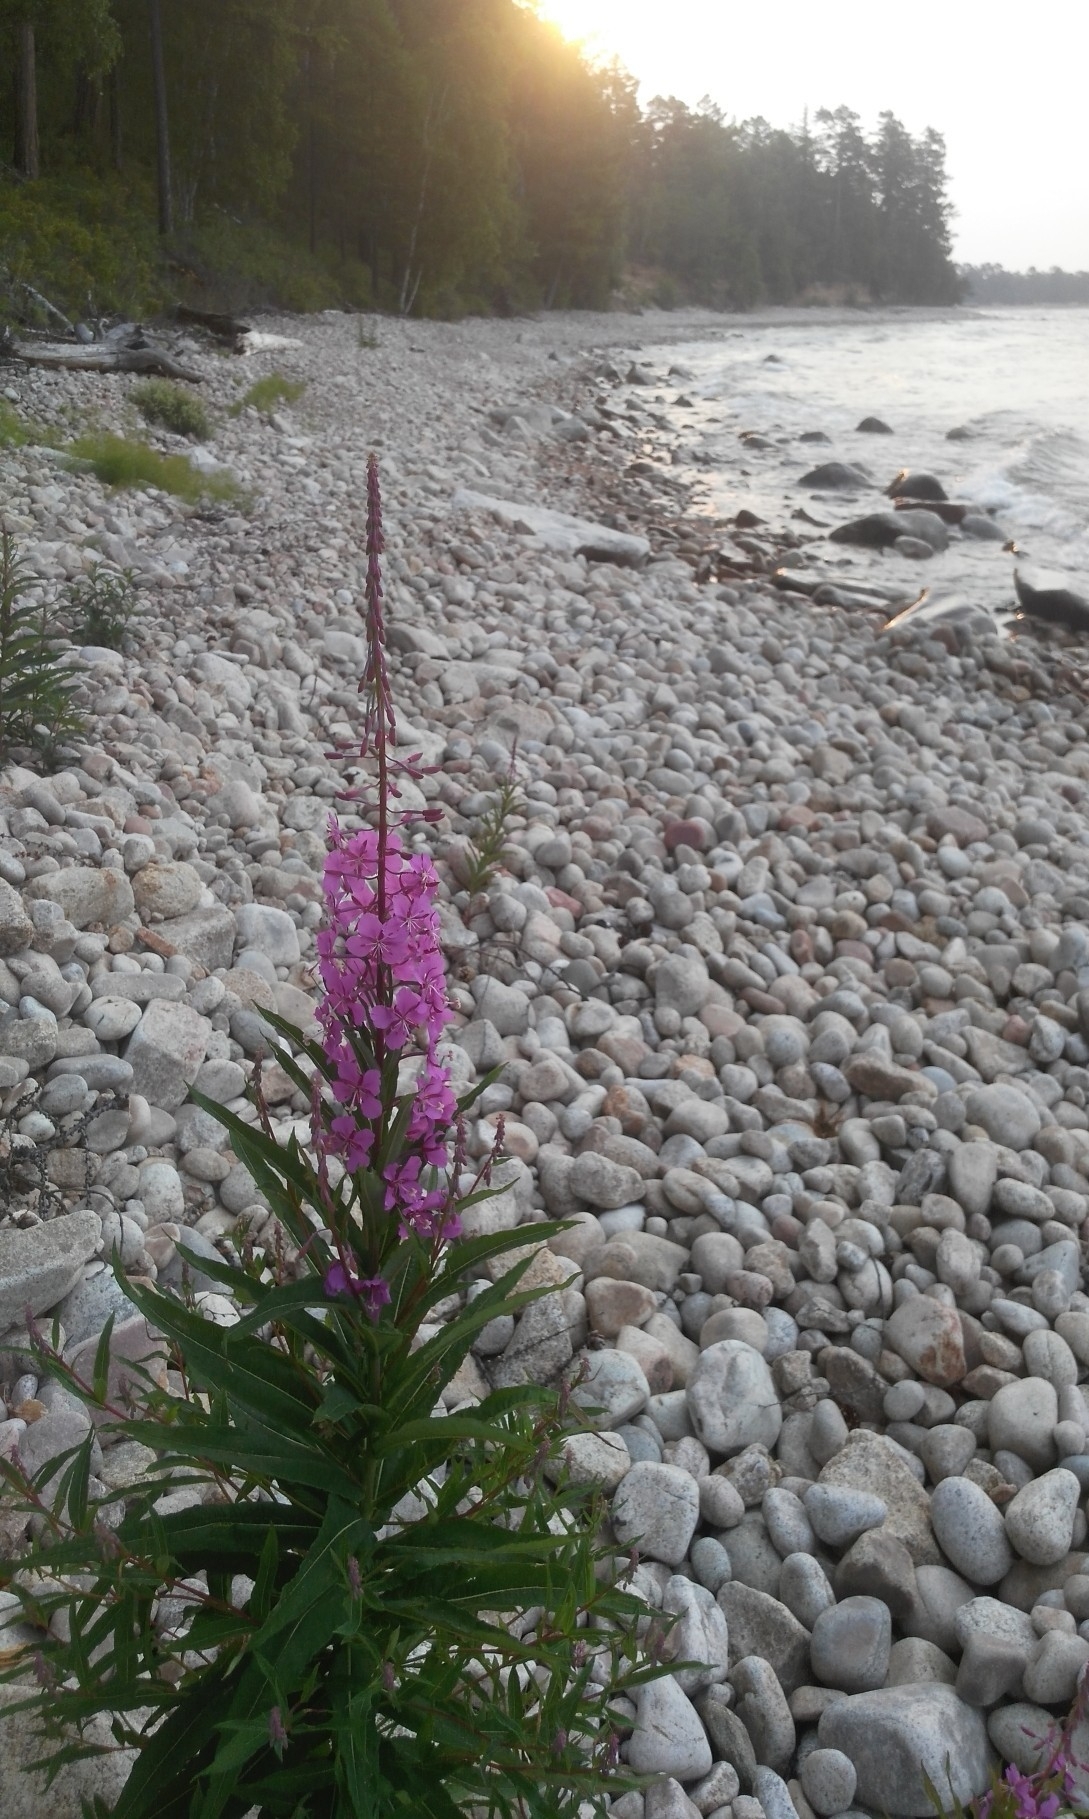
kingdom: Plantae
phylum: Tracheophyta
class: Magnoliopsida
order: Myrtales
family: Onagraceae
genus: Chamaenerion
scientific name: Chamaenerion angustifolium
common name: Fireweed
